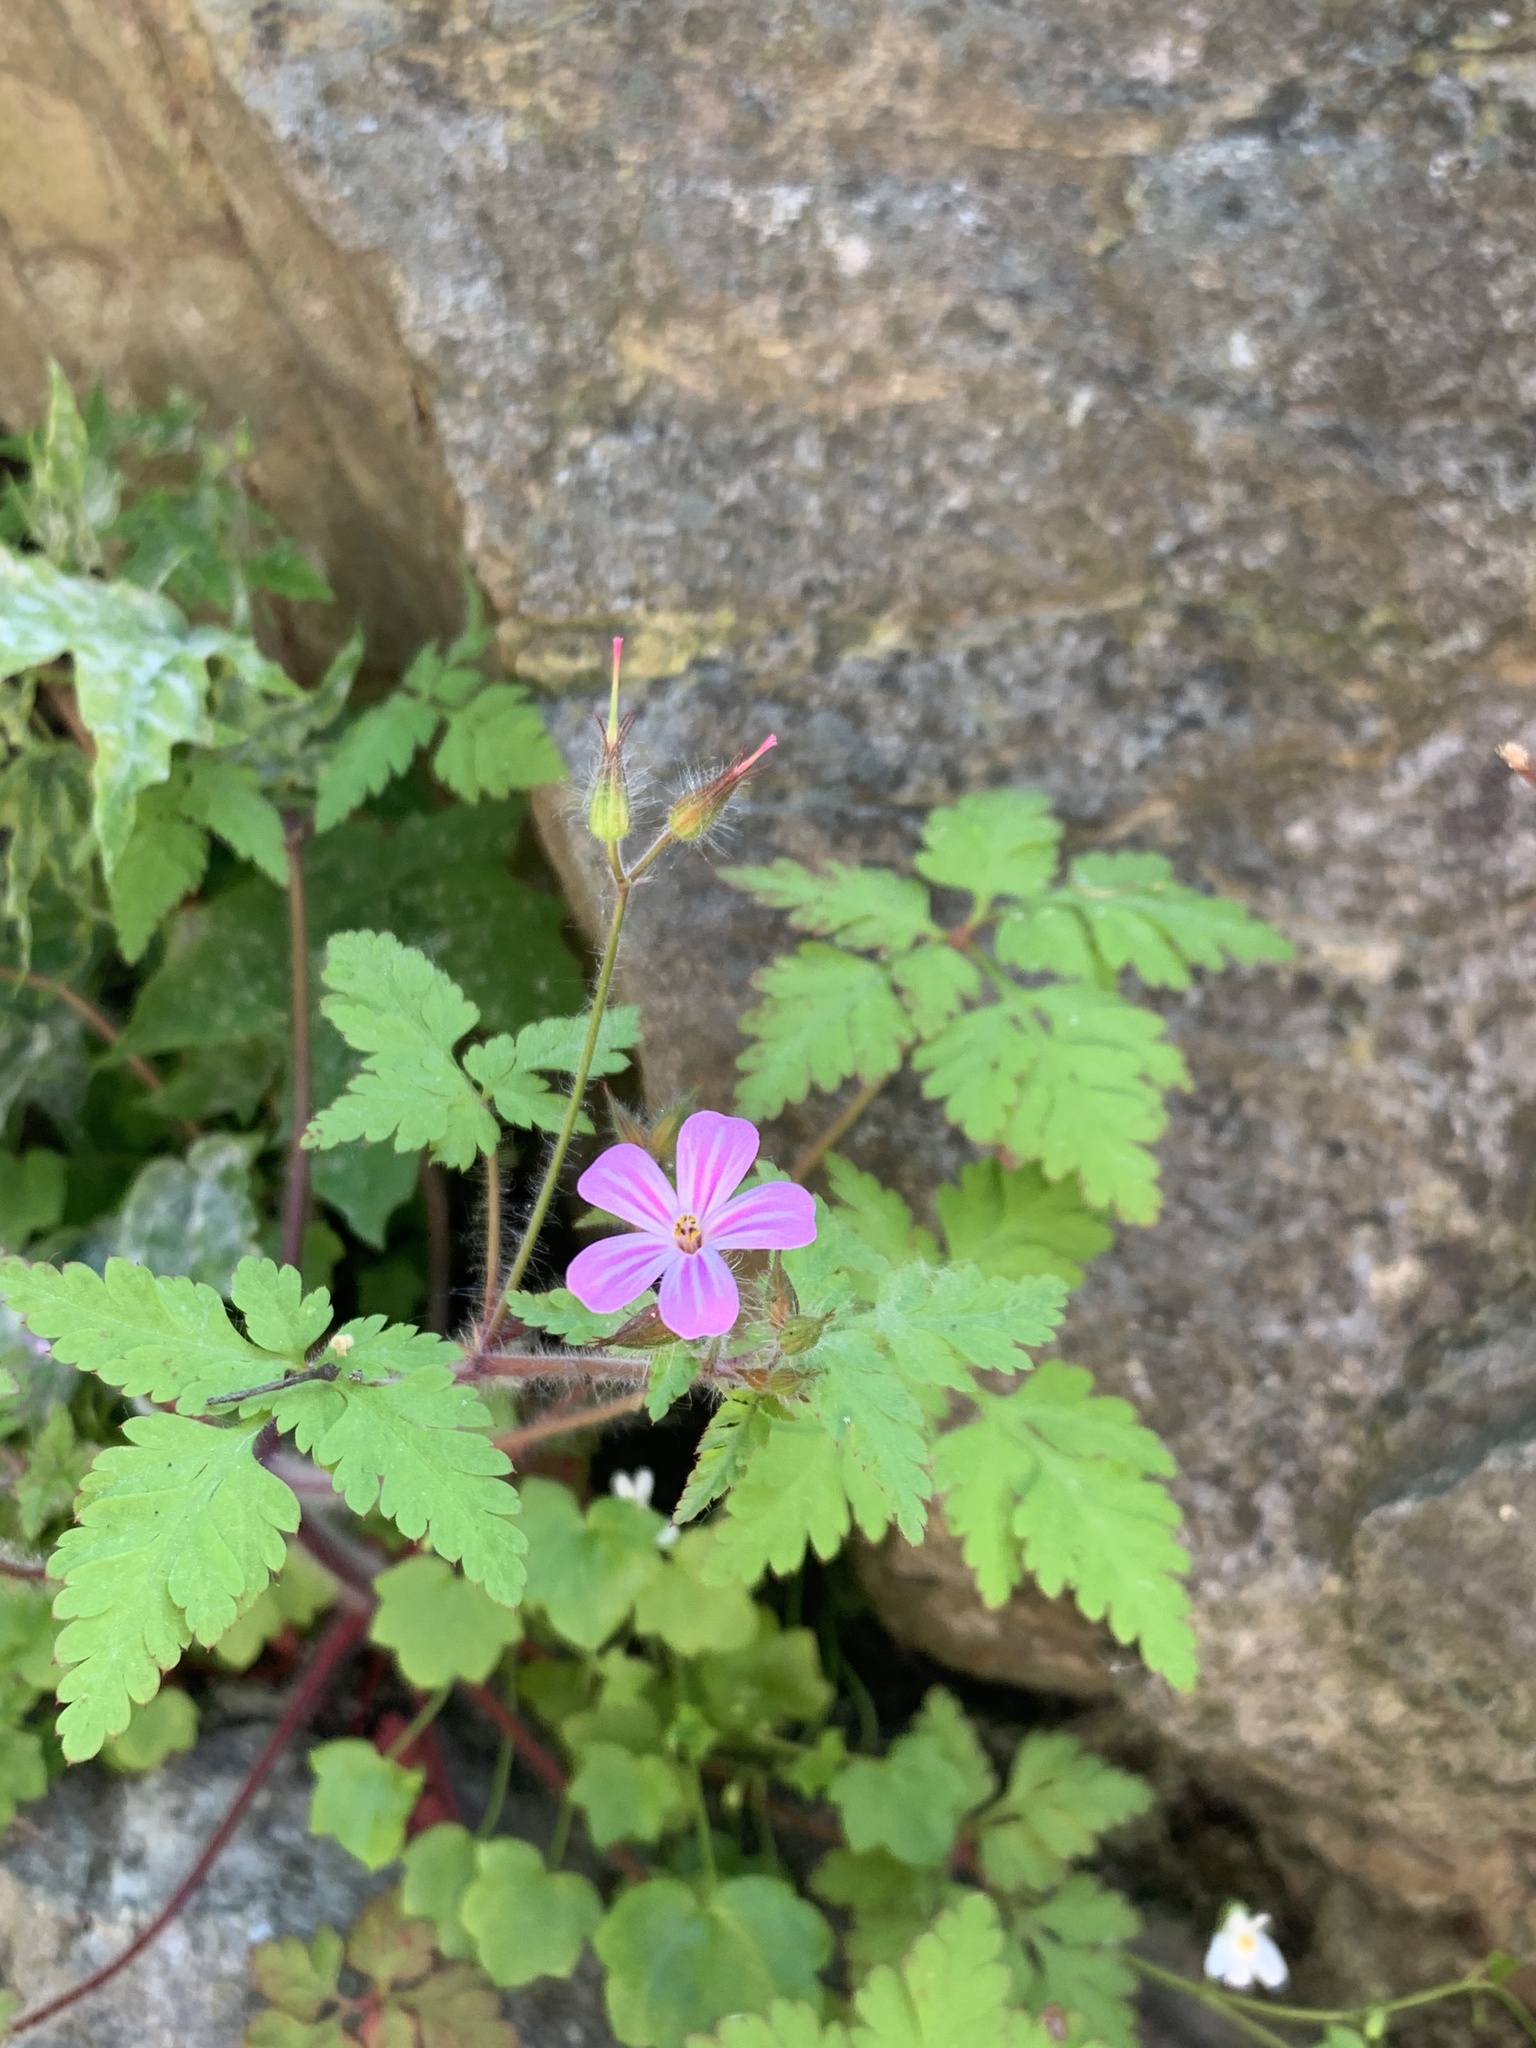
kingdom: Plantae
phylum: Tracheophyta
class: Magnoliopsida
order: Geraniales
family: Geraniaceae
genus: Geranium
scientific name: Geranium robertianum
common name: Herb-robert
